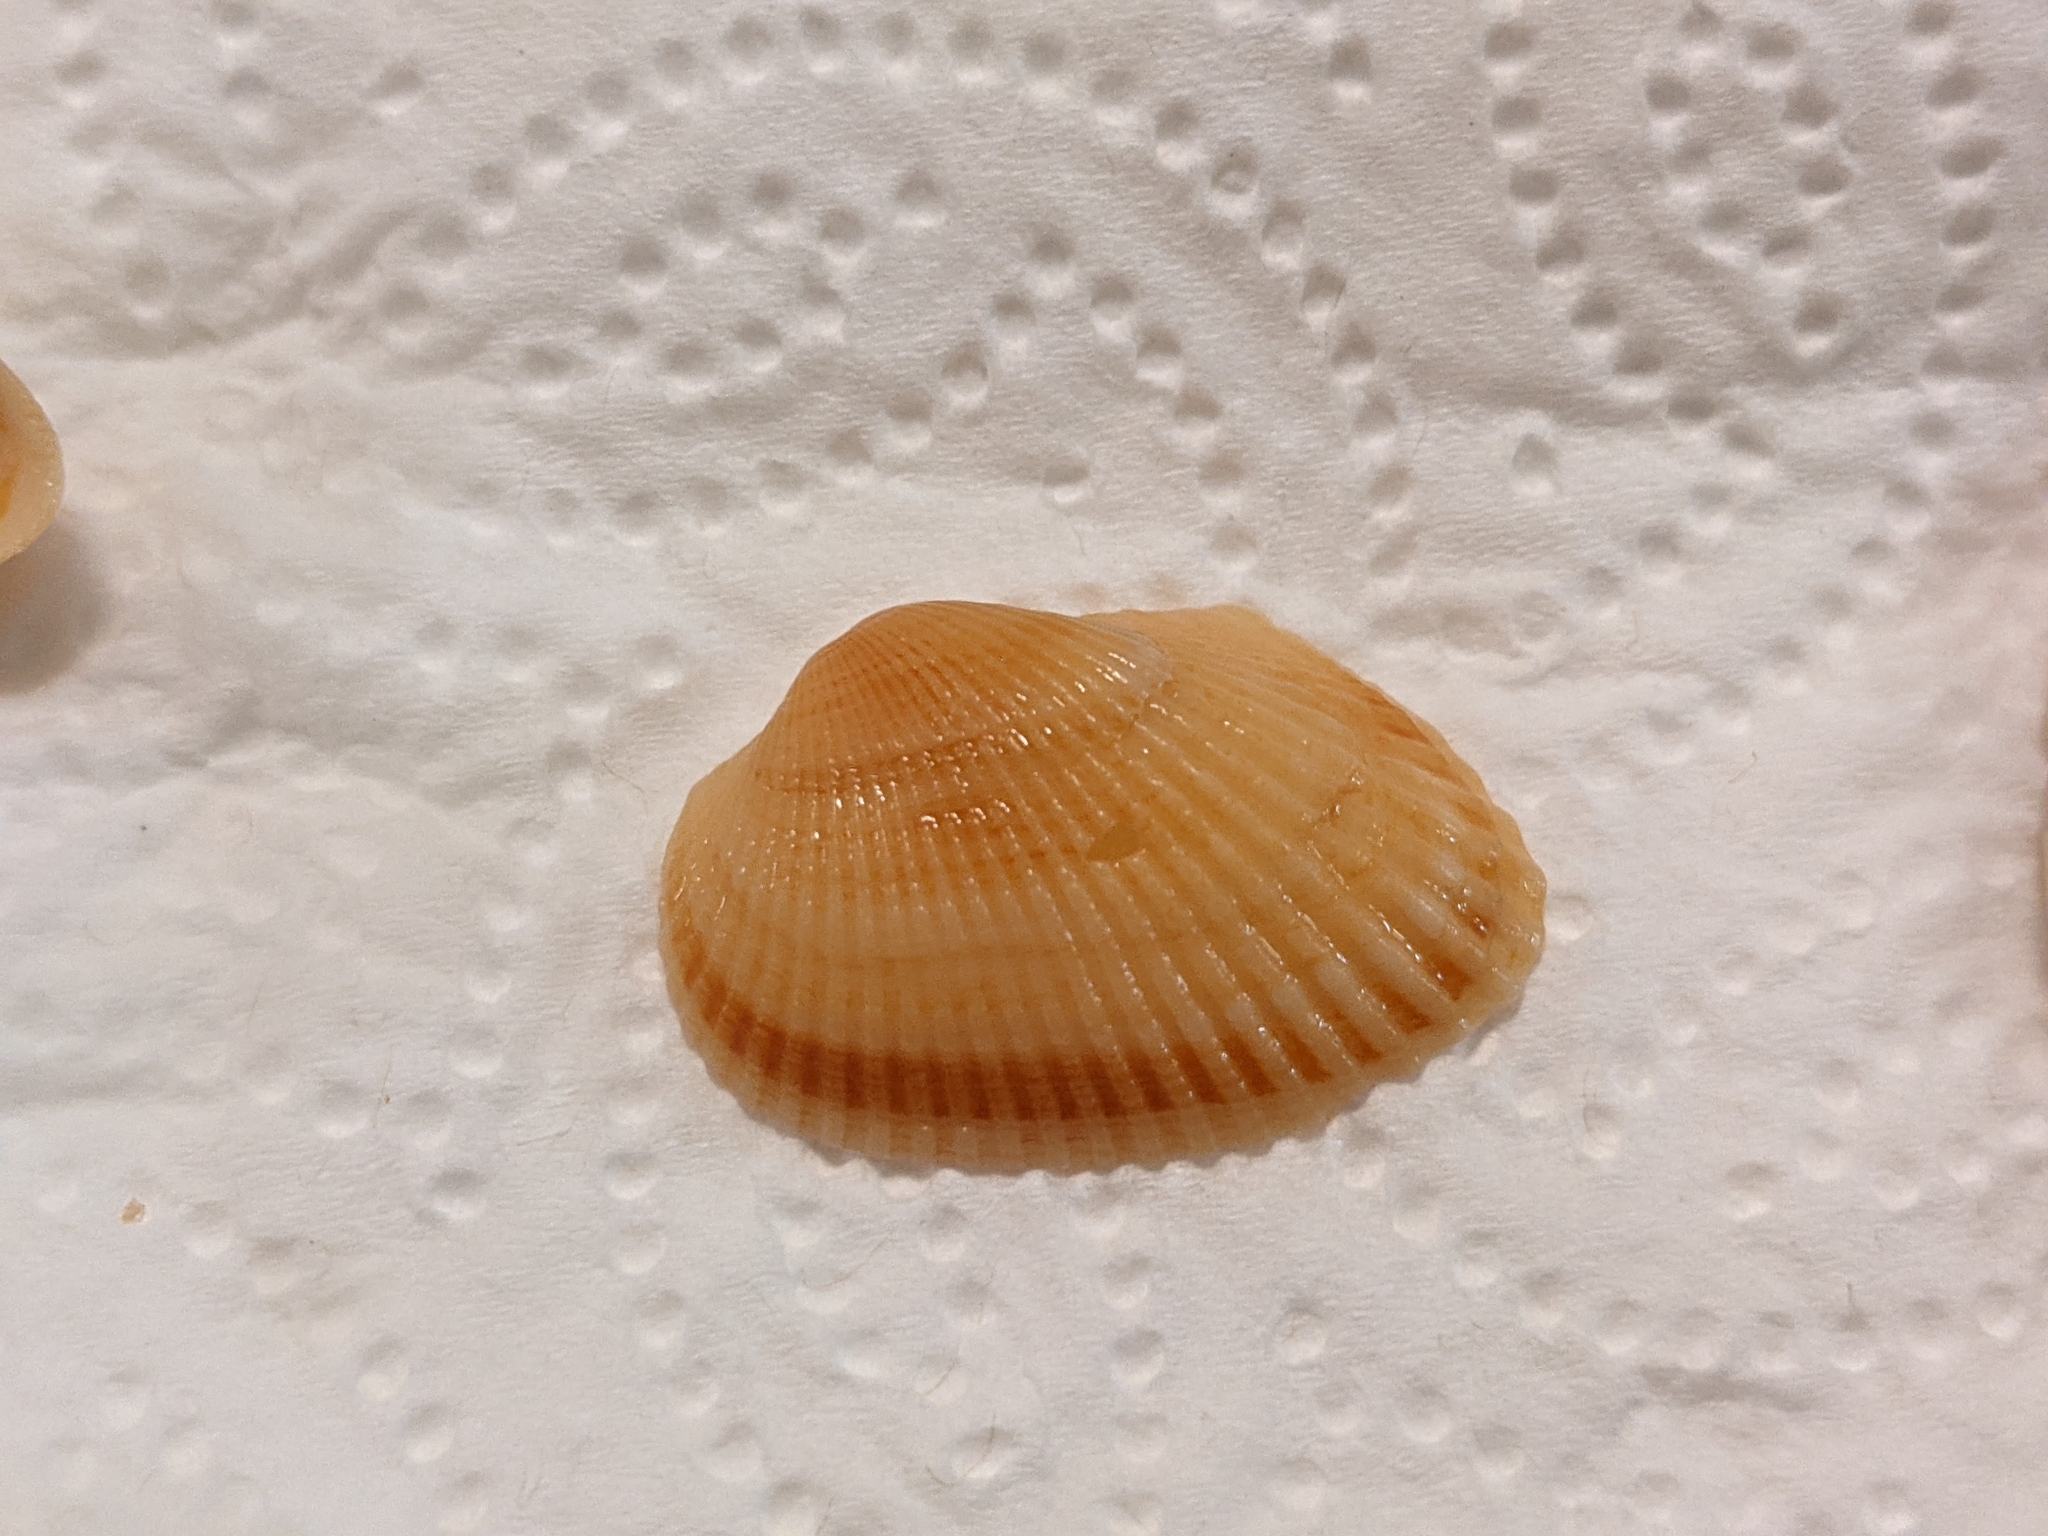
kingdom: Animalia
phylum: Mollusca
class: Bivalvia
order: Arcida
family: Arcidae
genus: Anadara
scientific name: Anadara transversa
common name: Transverse ark
